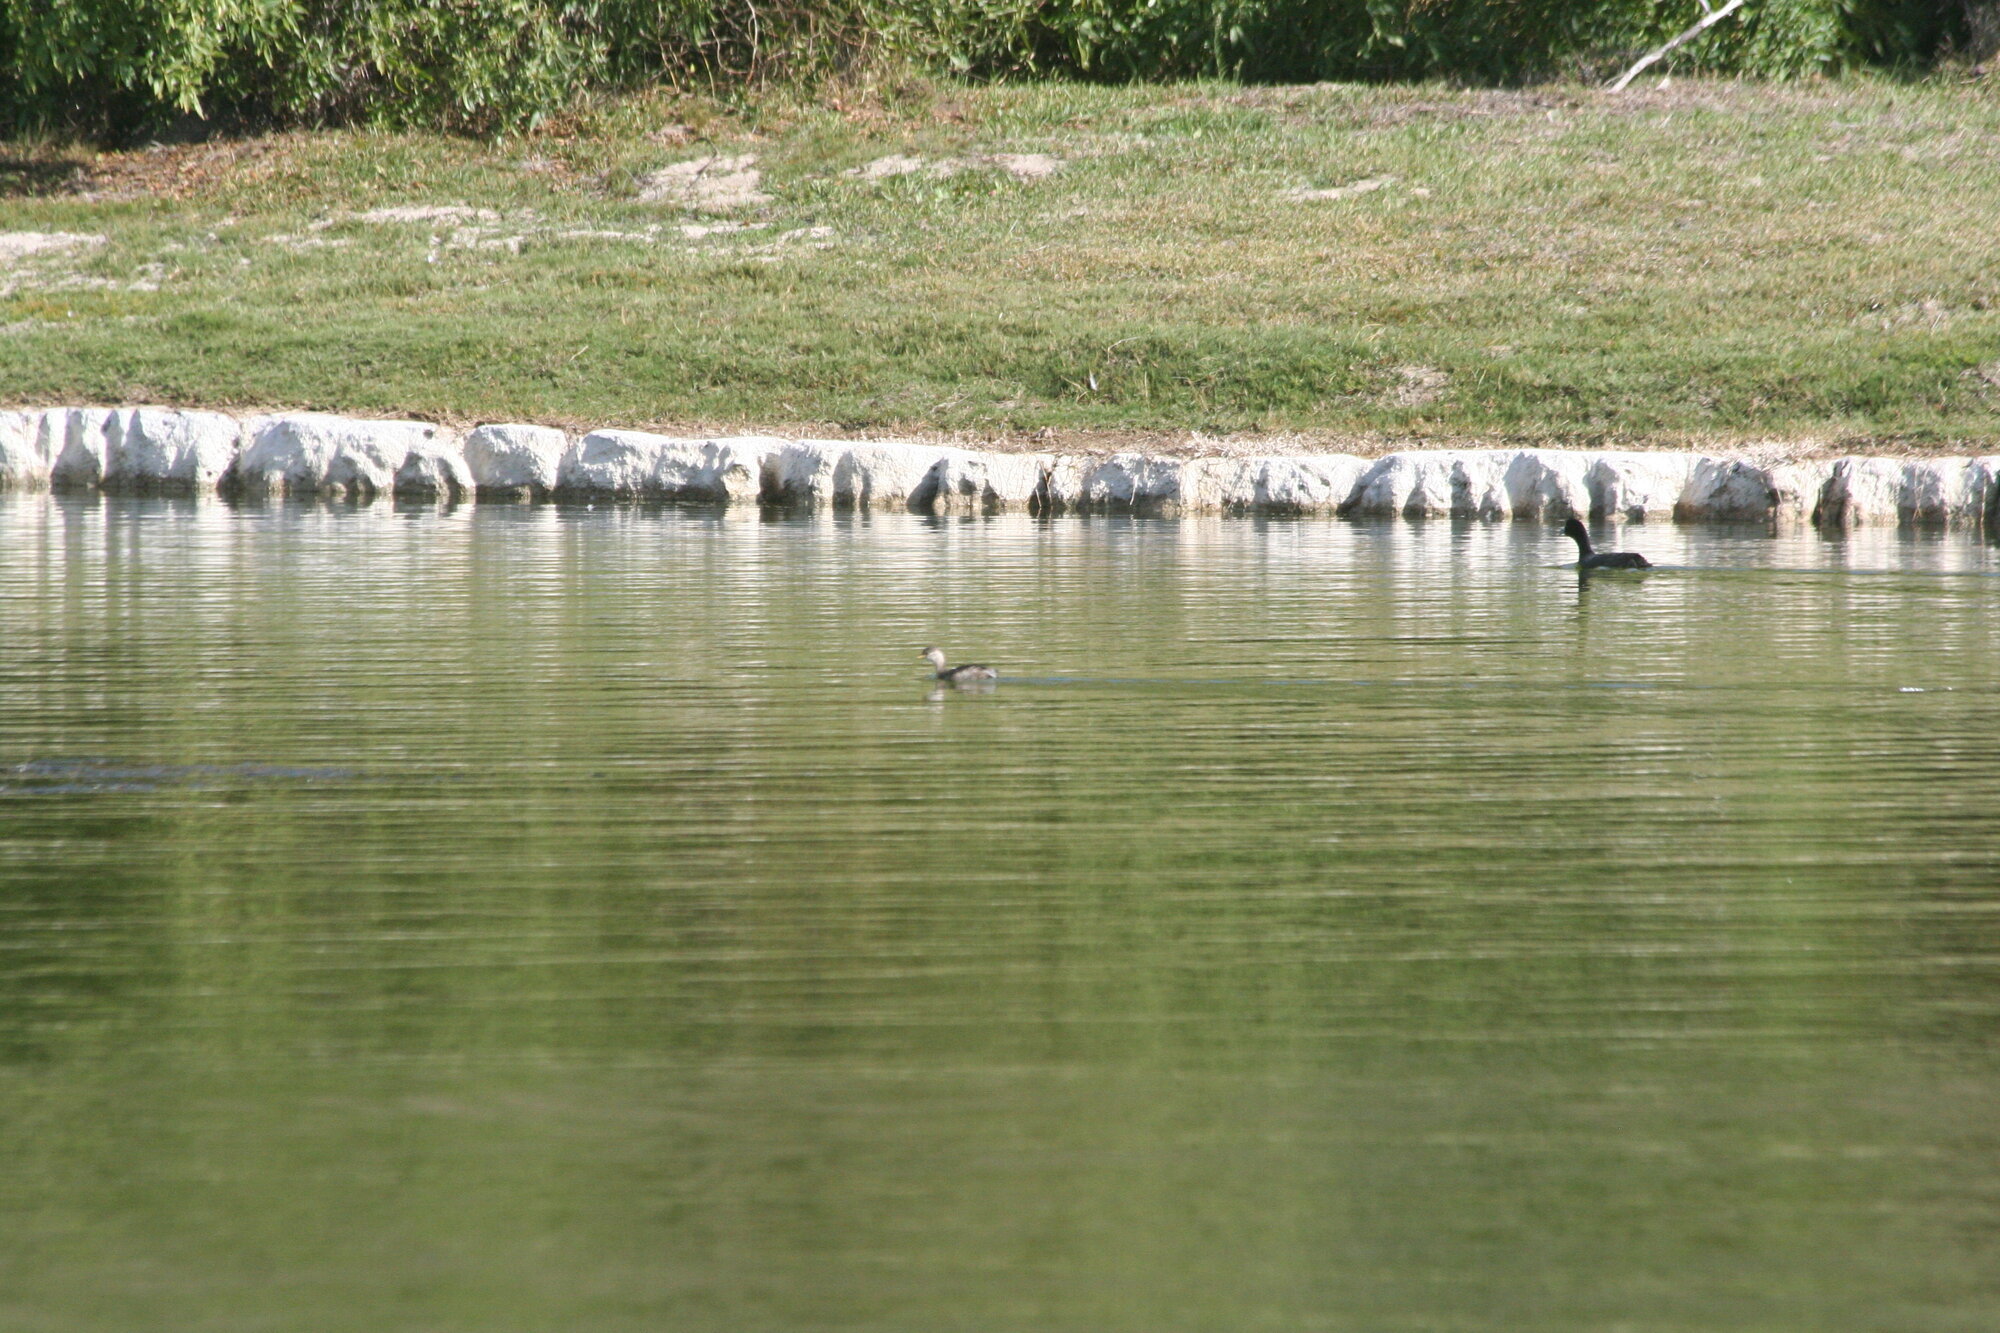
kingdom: Animalia
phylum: Chordata
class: Aves
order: Gruiformes
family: Rallidae
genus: Fulica
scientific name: Fulica cristata
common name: Red-knobbed coot
